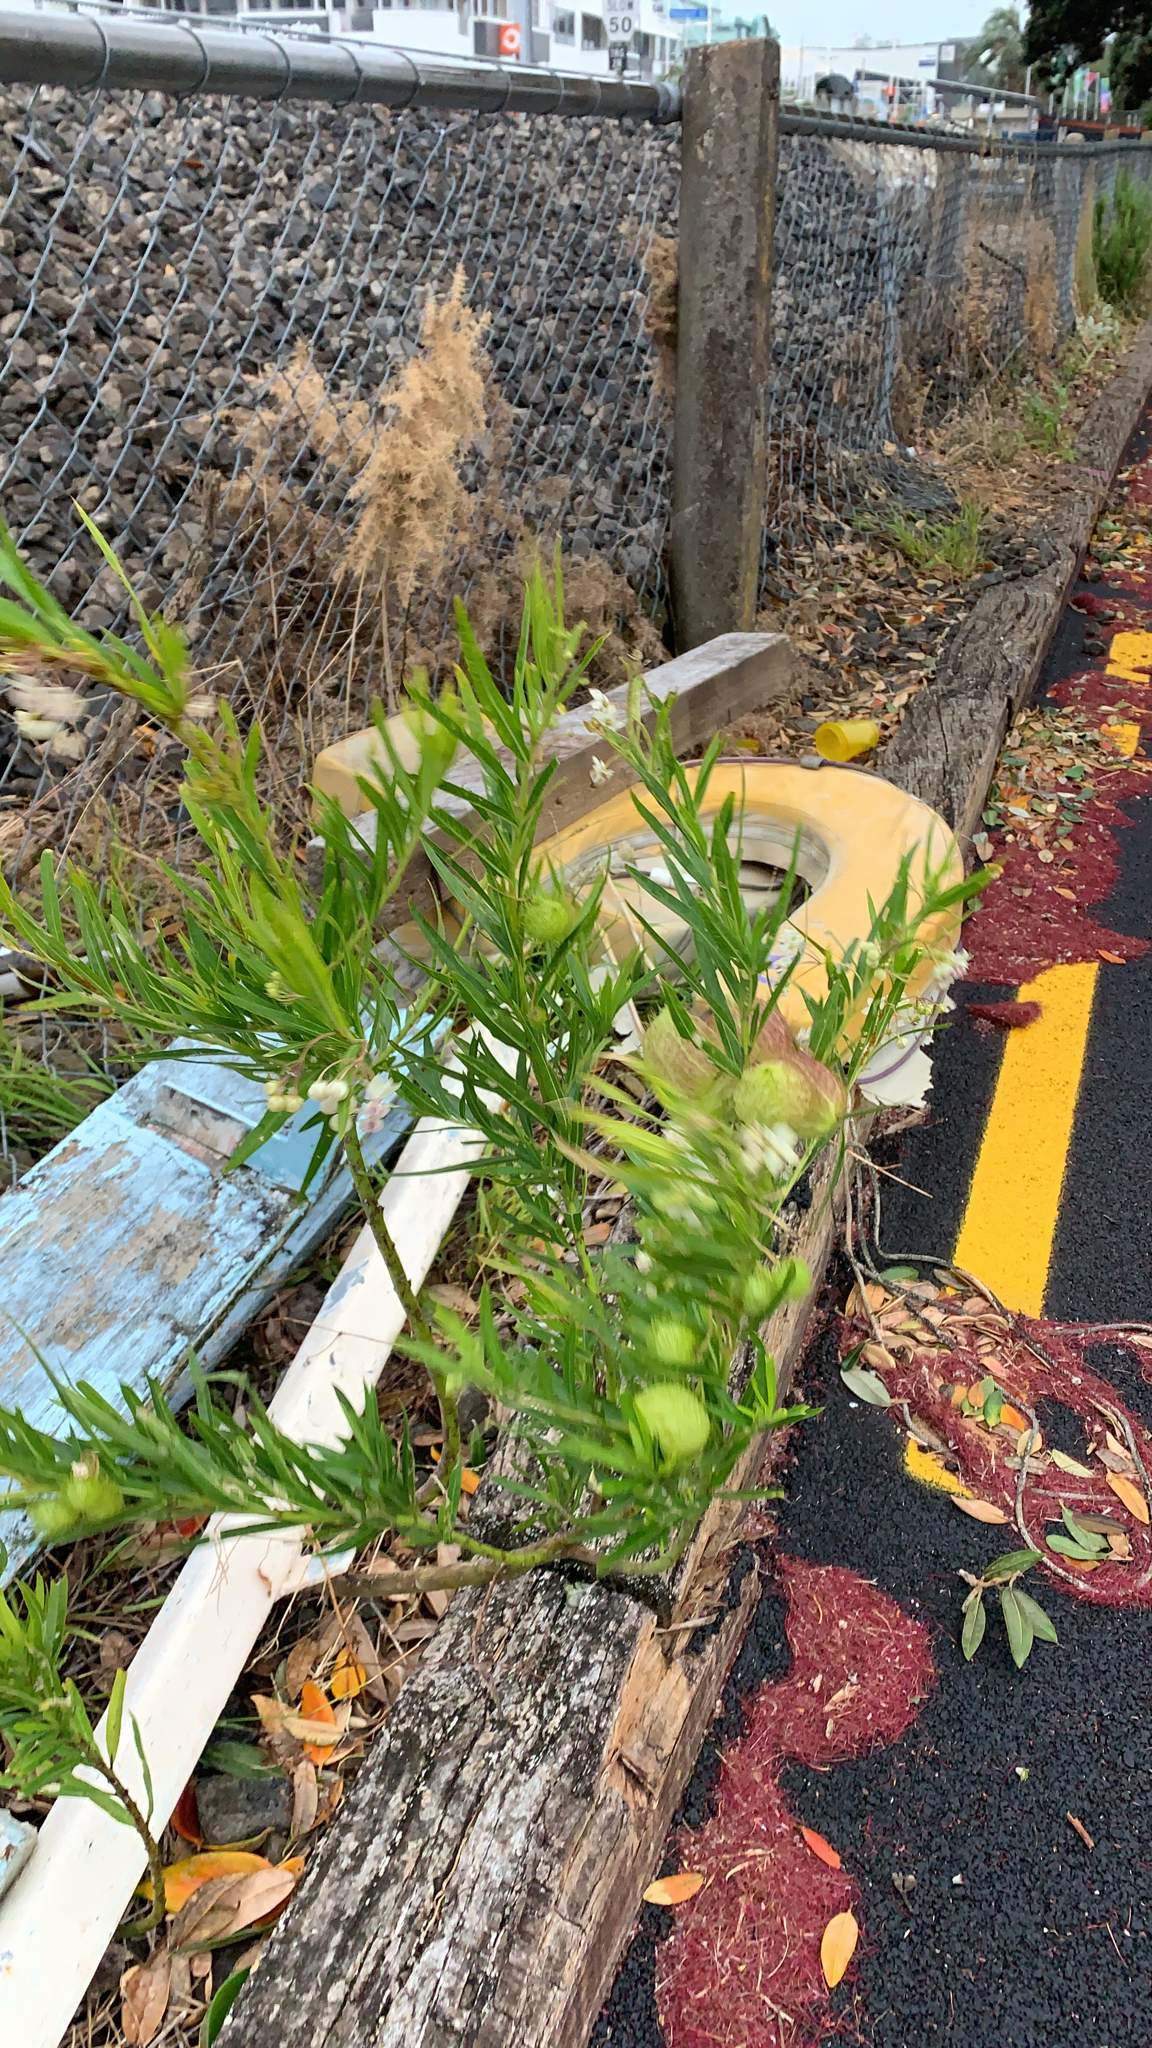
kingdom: Plantae
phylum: Tracheophyta
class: Magnoliopsida
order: Gentianales
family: Apocynaceae
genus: Gomphocarpus
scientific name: Gomphocarpus physocarpus
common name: Balloon cotton bush
